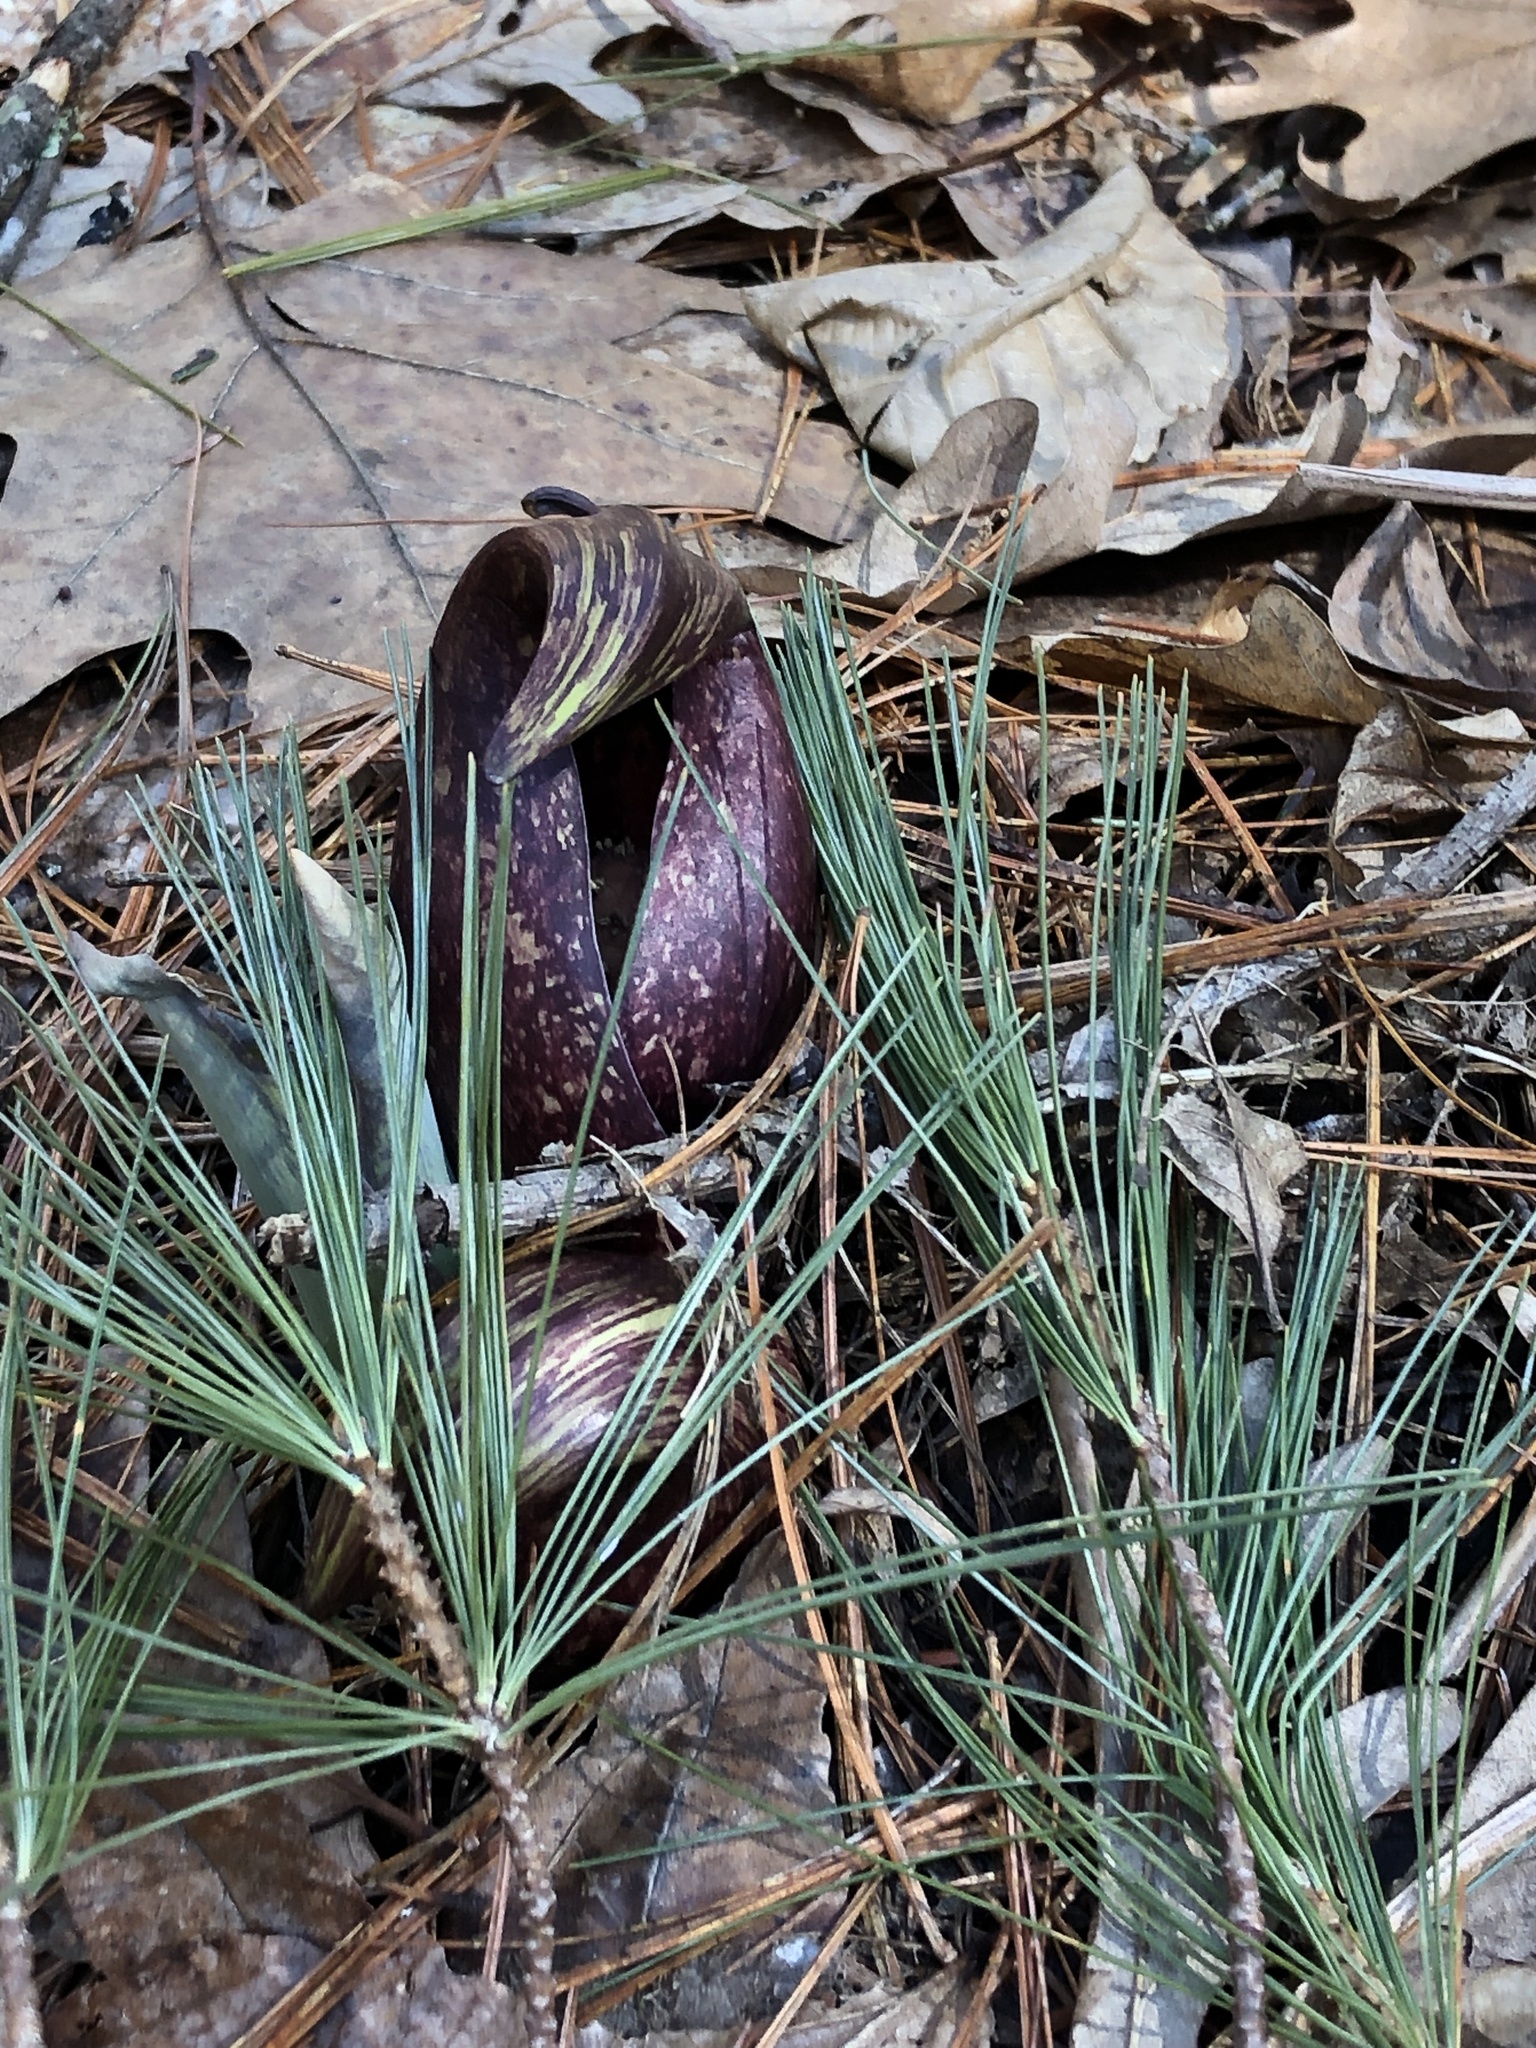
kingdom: Plantae
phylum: Tracheophyta
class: Liliopsida
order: Alismatales
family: Araceae
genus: Symplocarpus
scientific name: Symplocarpus foetidus
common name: Eastern skunk cabbage
